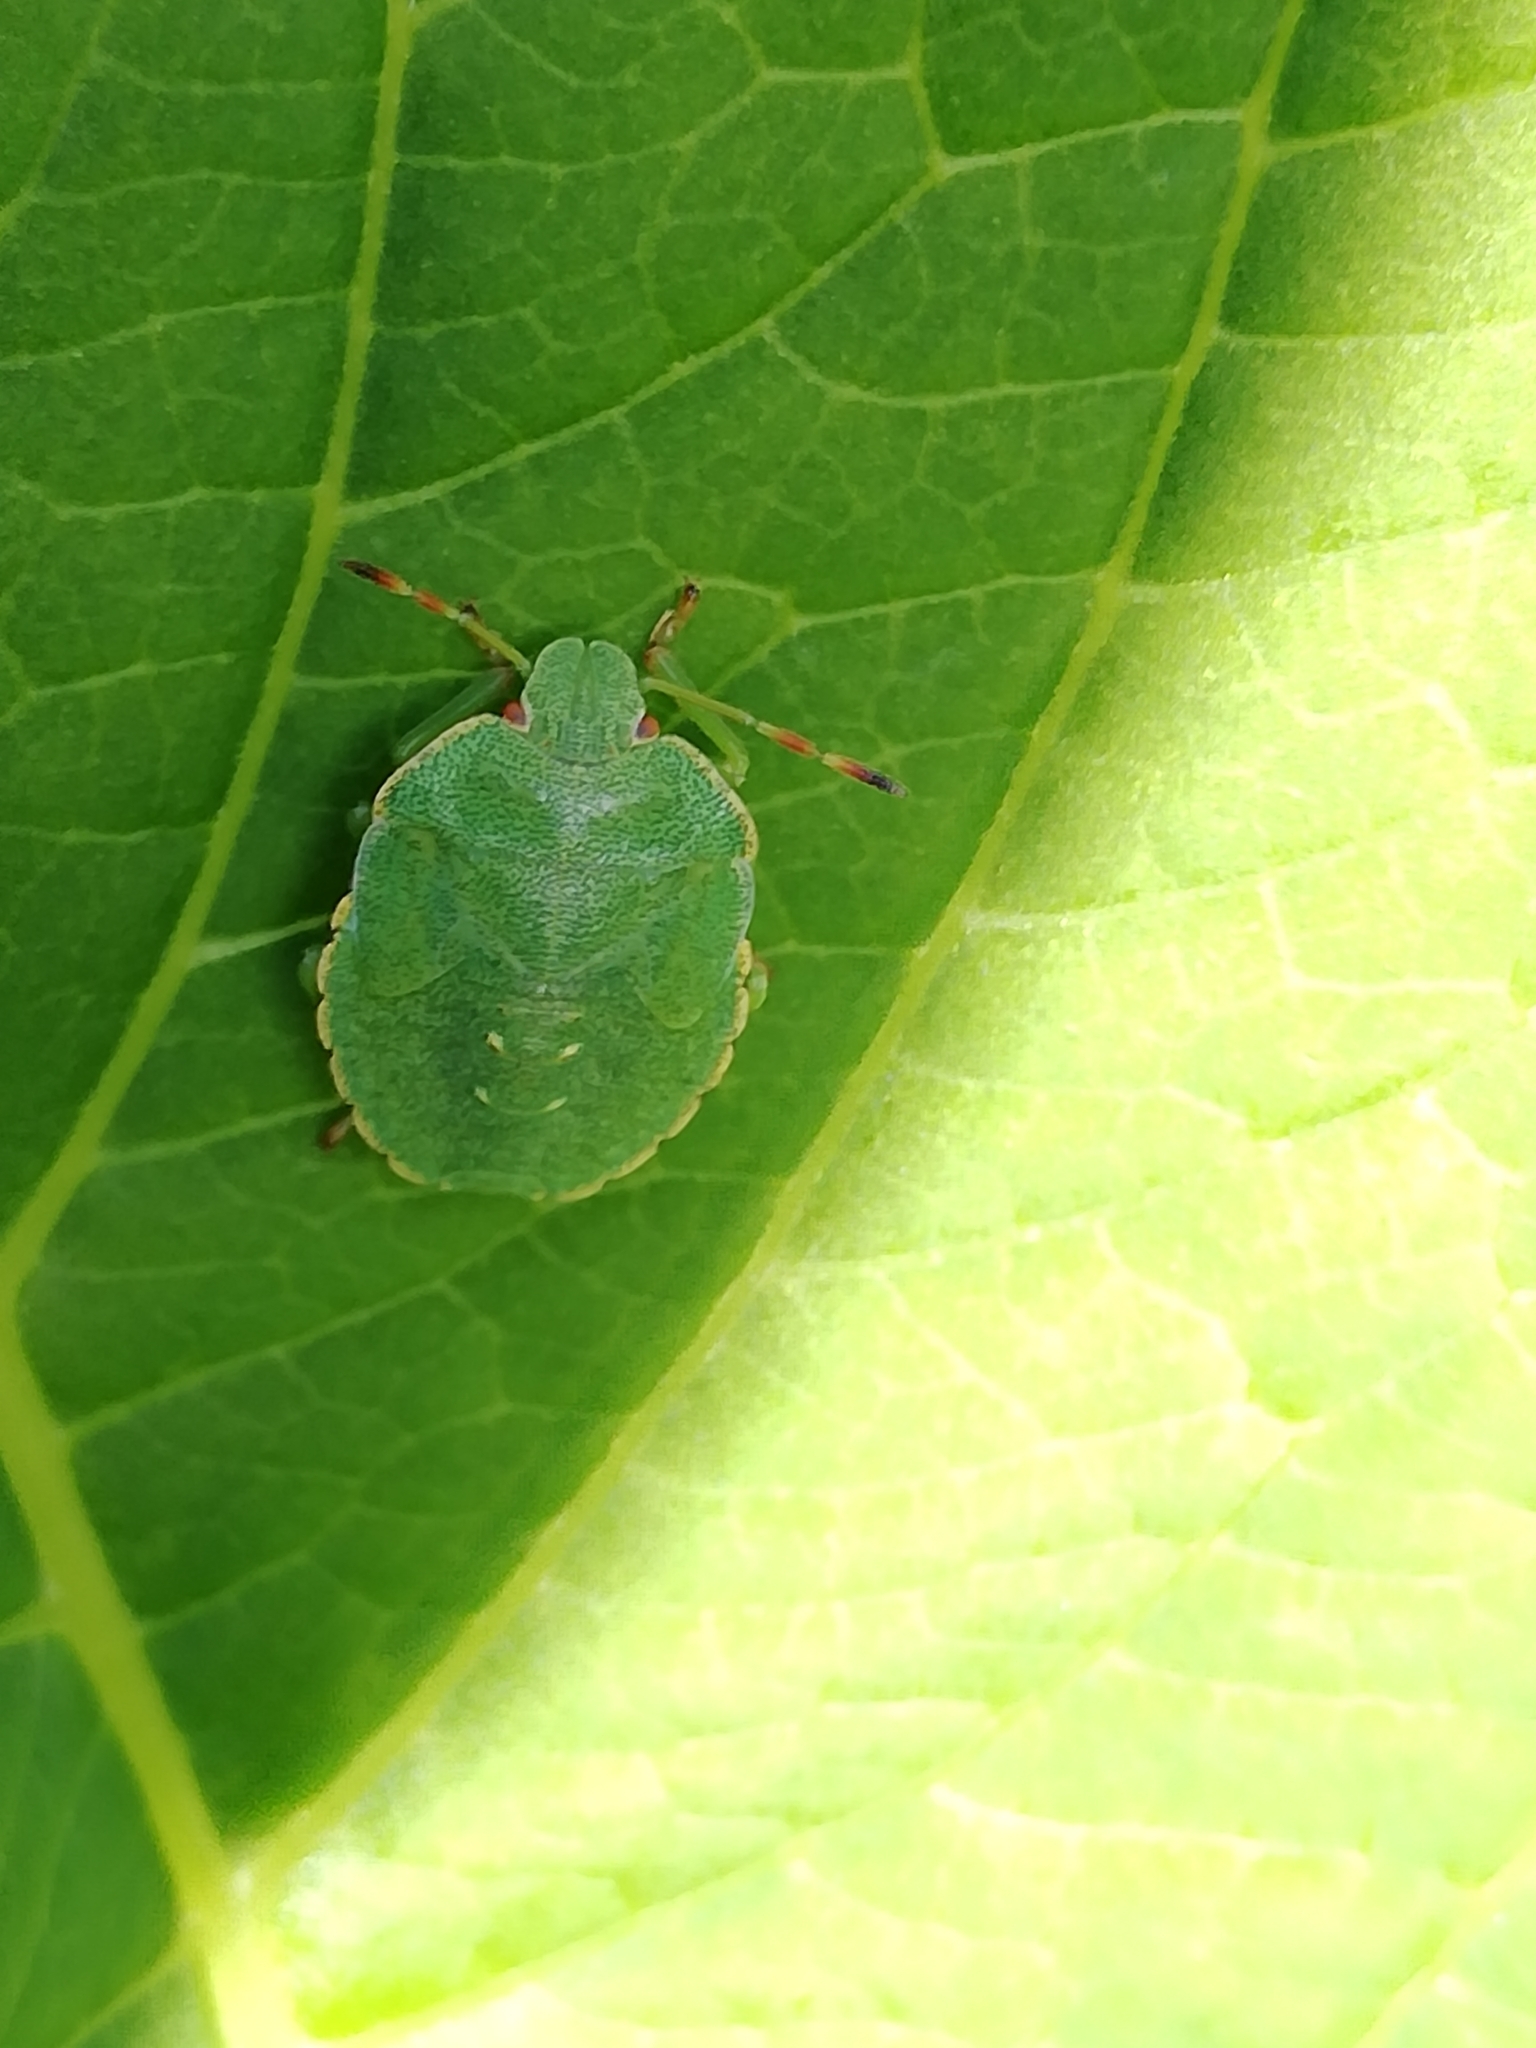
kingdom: Animalia
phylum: Arthropoda
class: Insecta
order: Hemiptera
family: Pentatomidae
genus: Palomena
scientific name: Palomena prasina
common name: Green shieldbug
